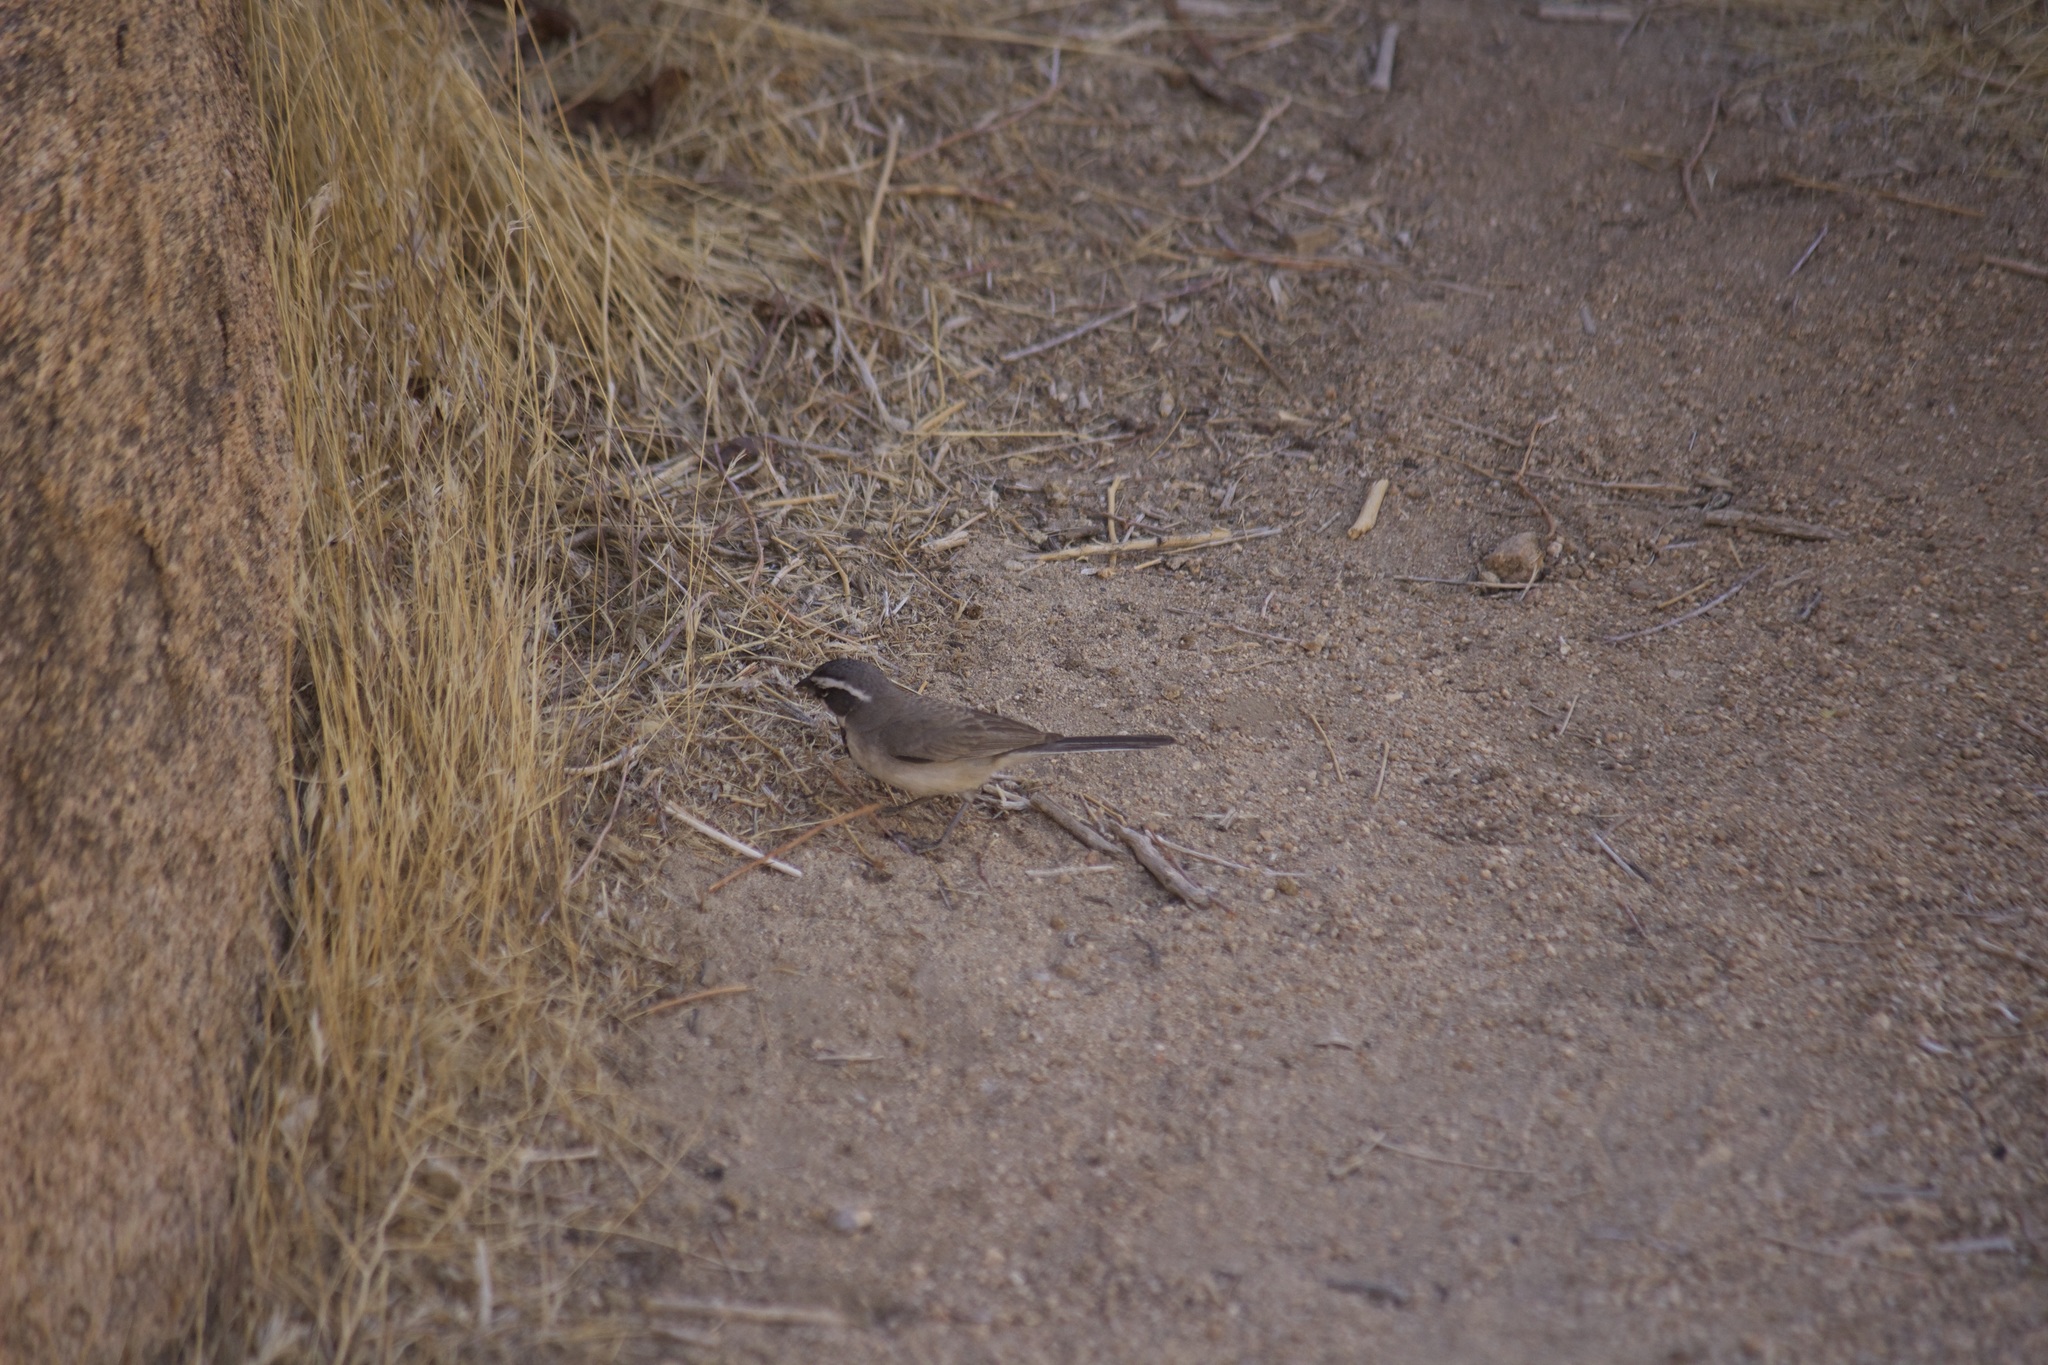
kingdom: Animalia
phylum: Chordata
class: Aves
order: Passeriformes
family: Passerellidae
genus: Amphispiza
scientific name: Amphispiza bilineata
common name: Black-throated sparrow
